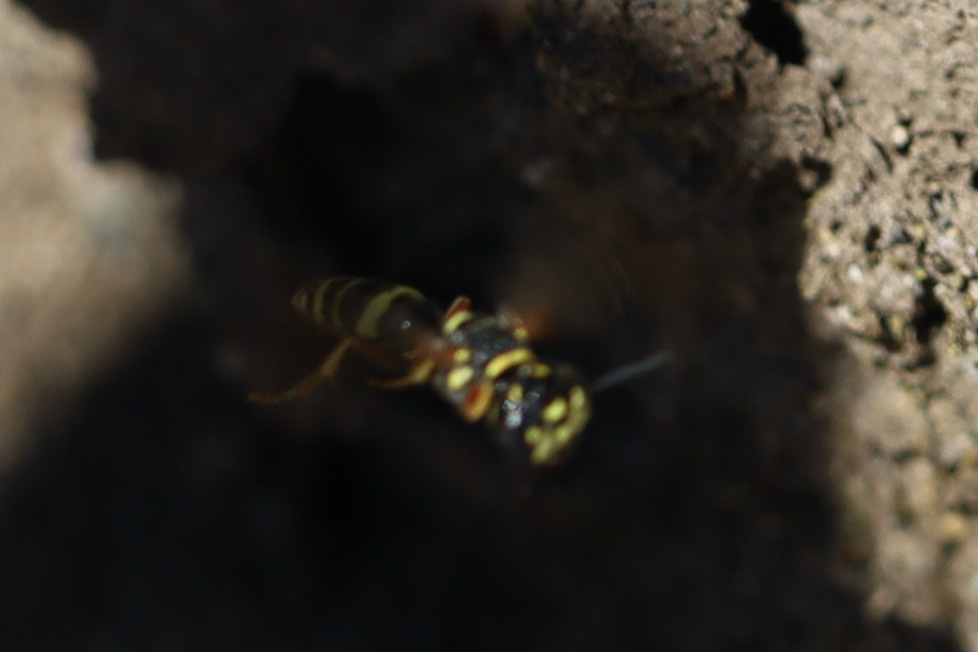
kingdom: Animalia
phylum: Arthropoda
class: Insecta
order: Hymenoptera
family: Crabronidae
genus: Philanthus
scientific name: Philanthus gibbosus
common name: Humped beewolf
